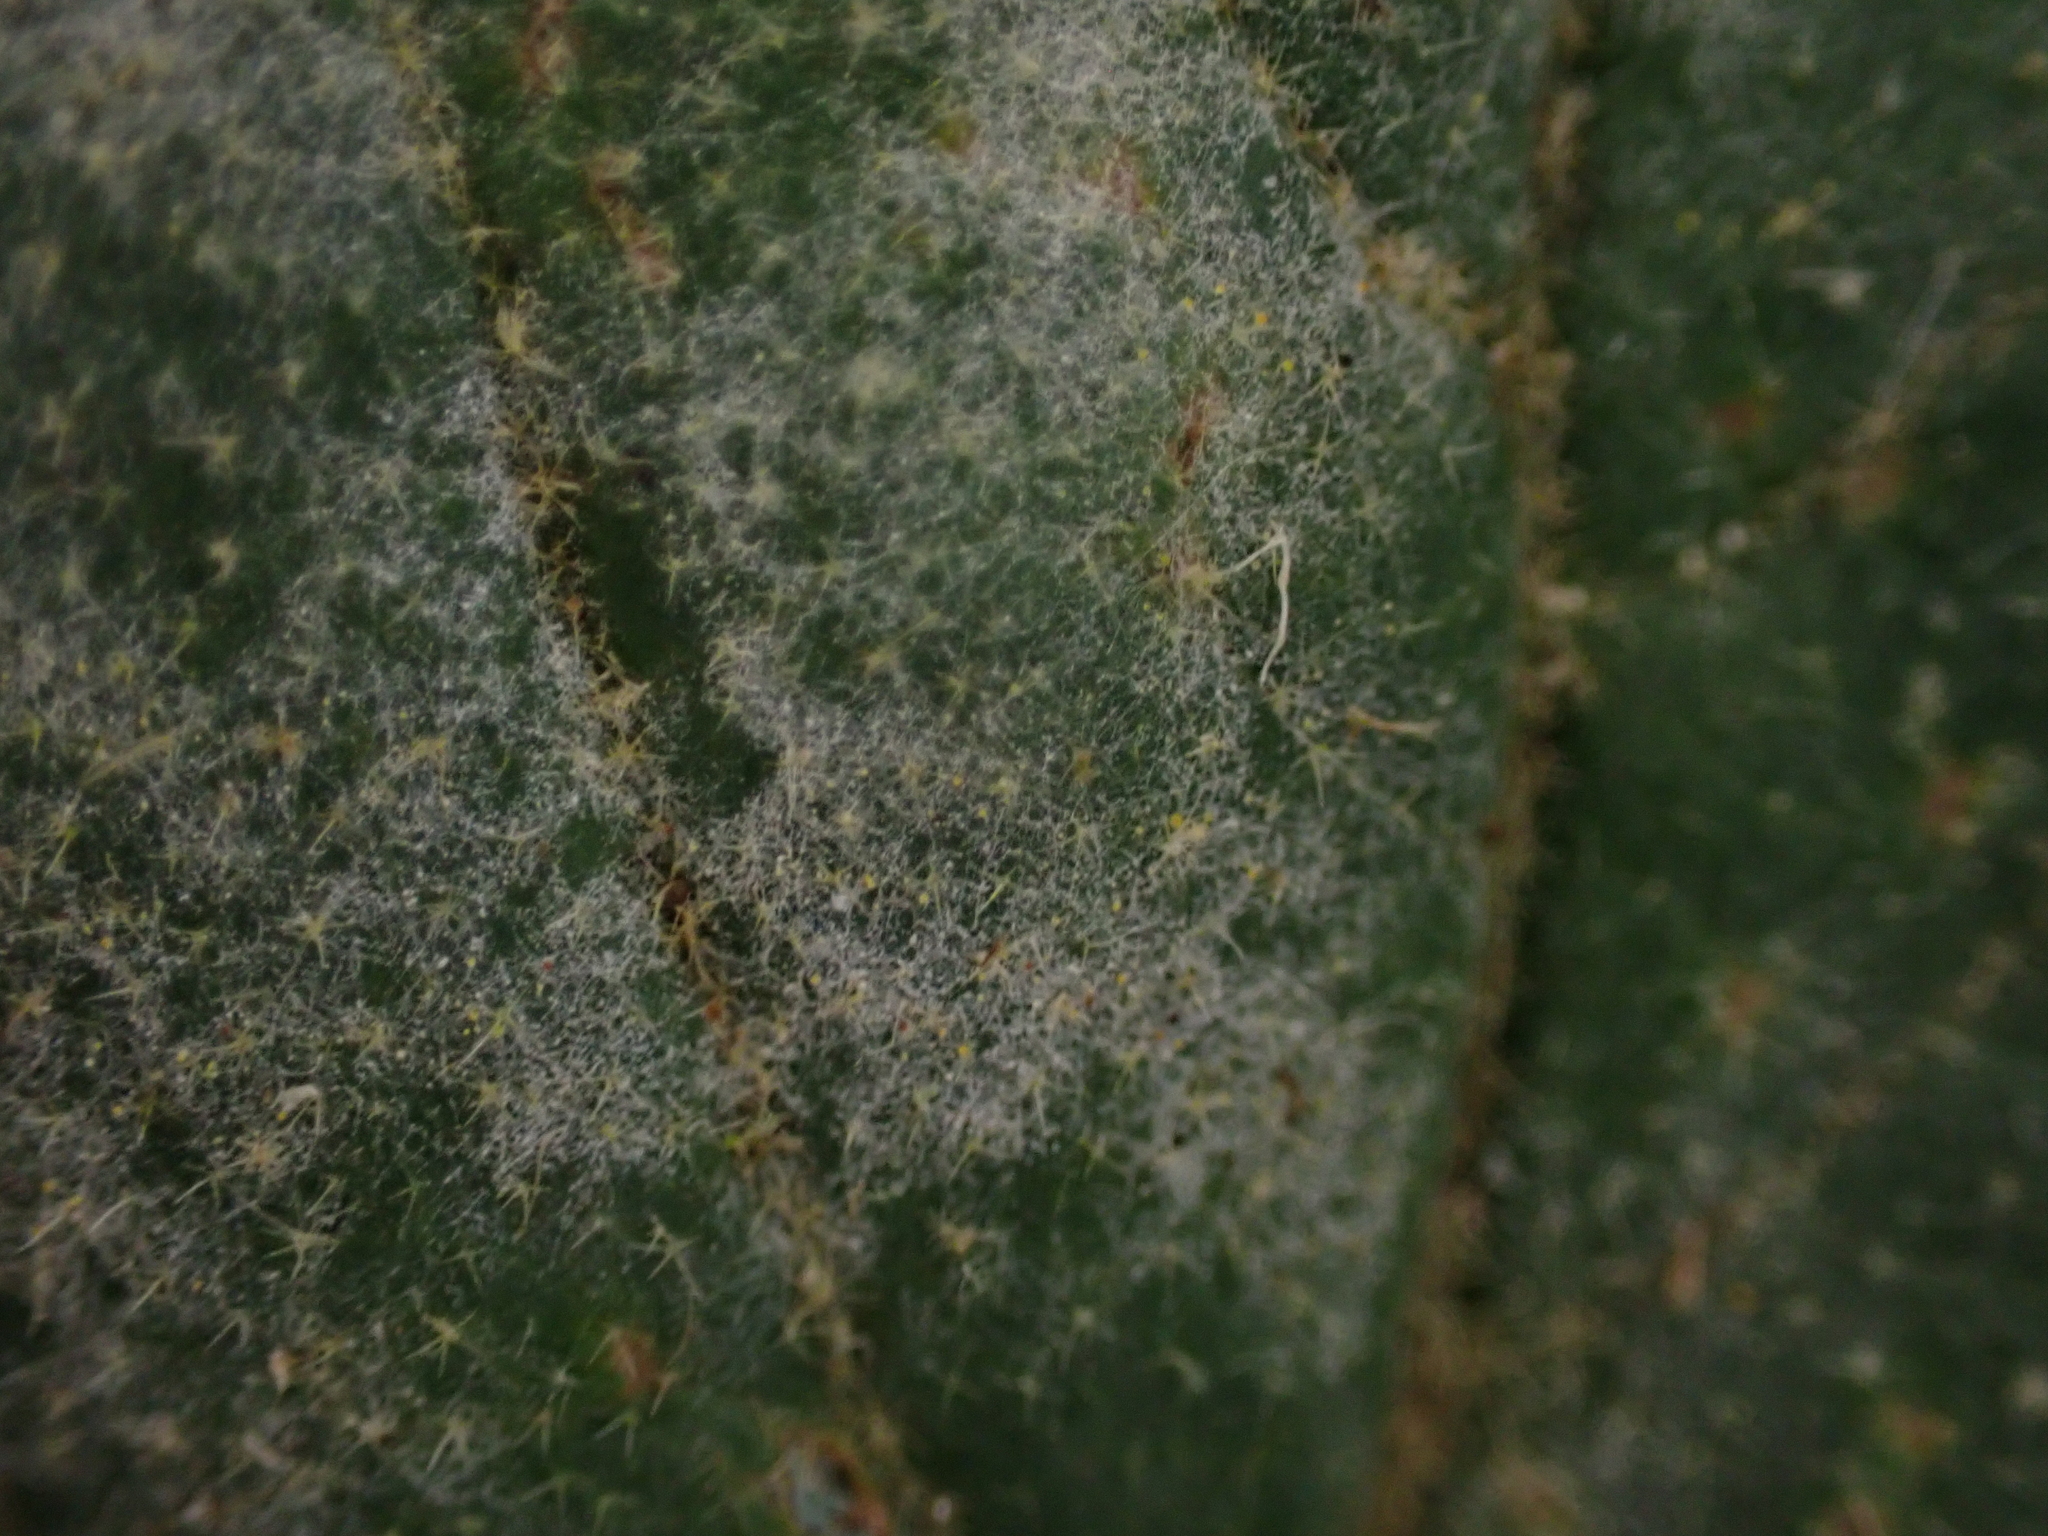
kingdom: Fungi
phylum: Ascomycota
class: Leotiomycetes
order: Helotiales
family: Erysiphaceae
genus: Erysiphe
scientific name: Erysiphe viburni
